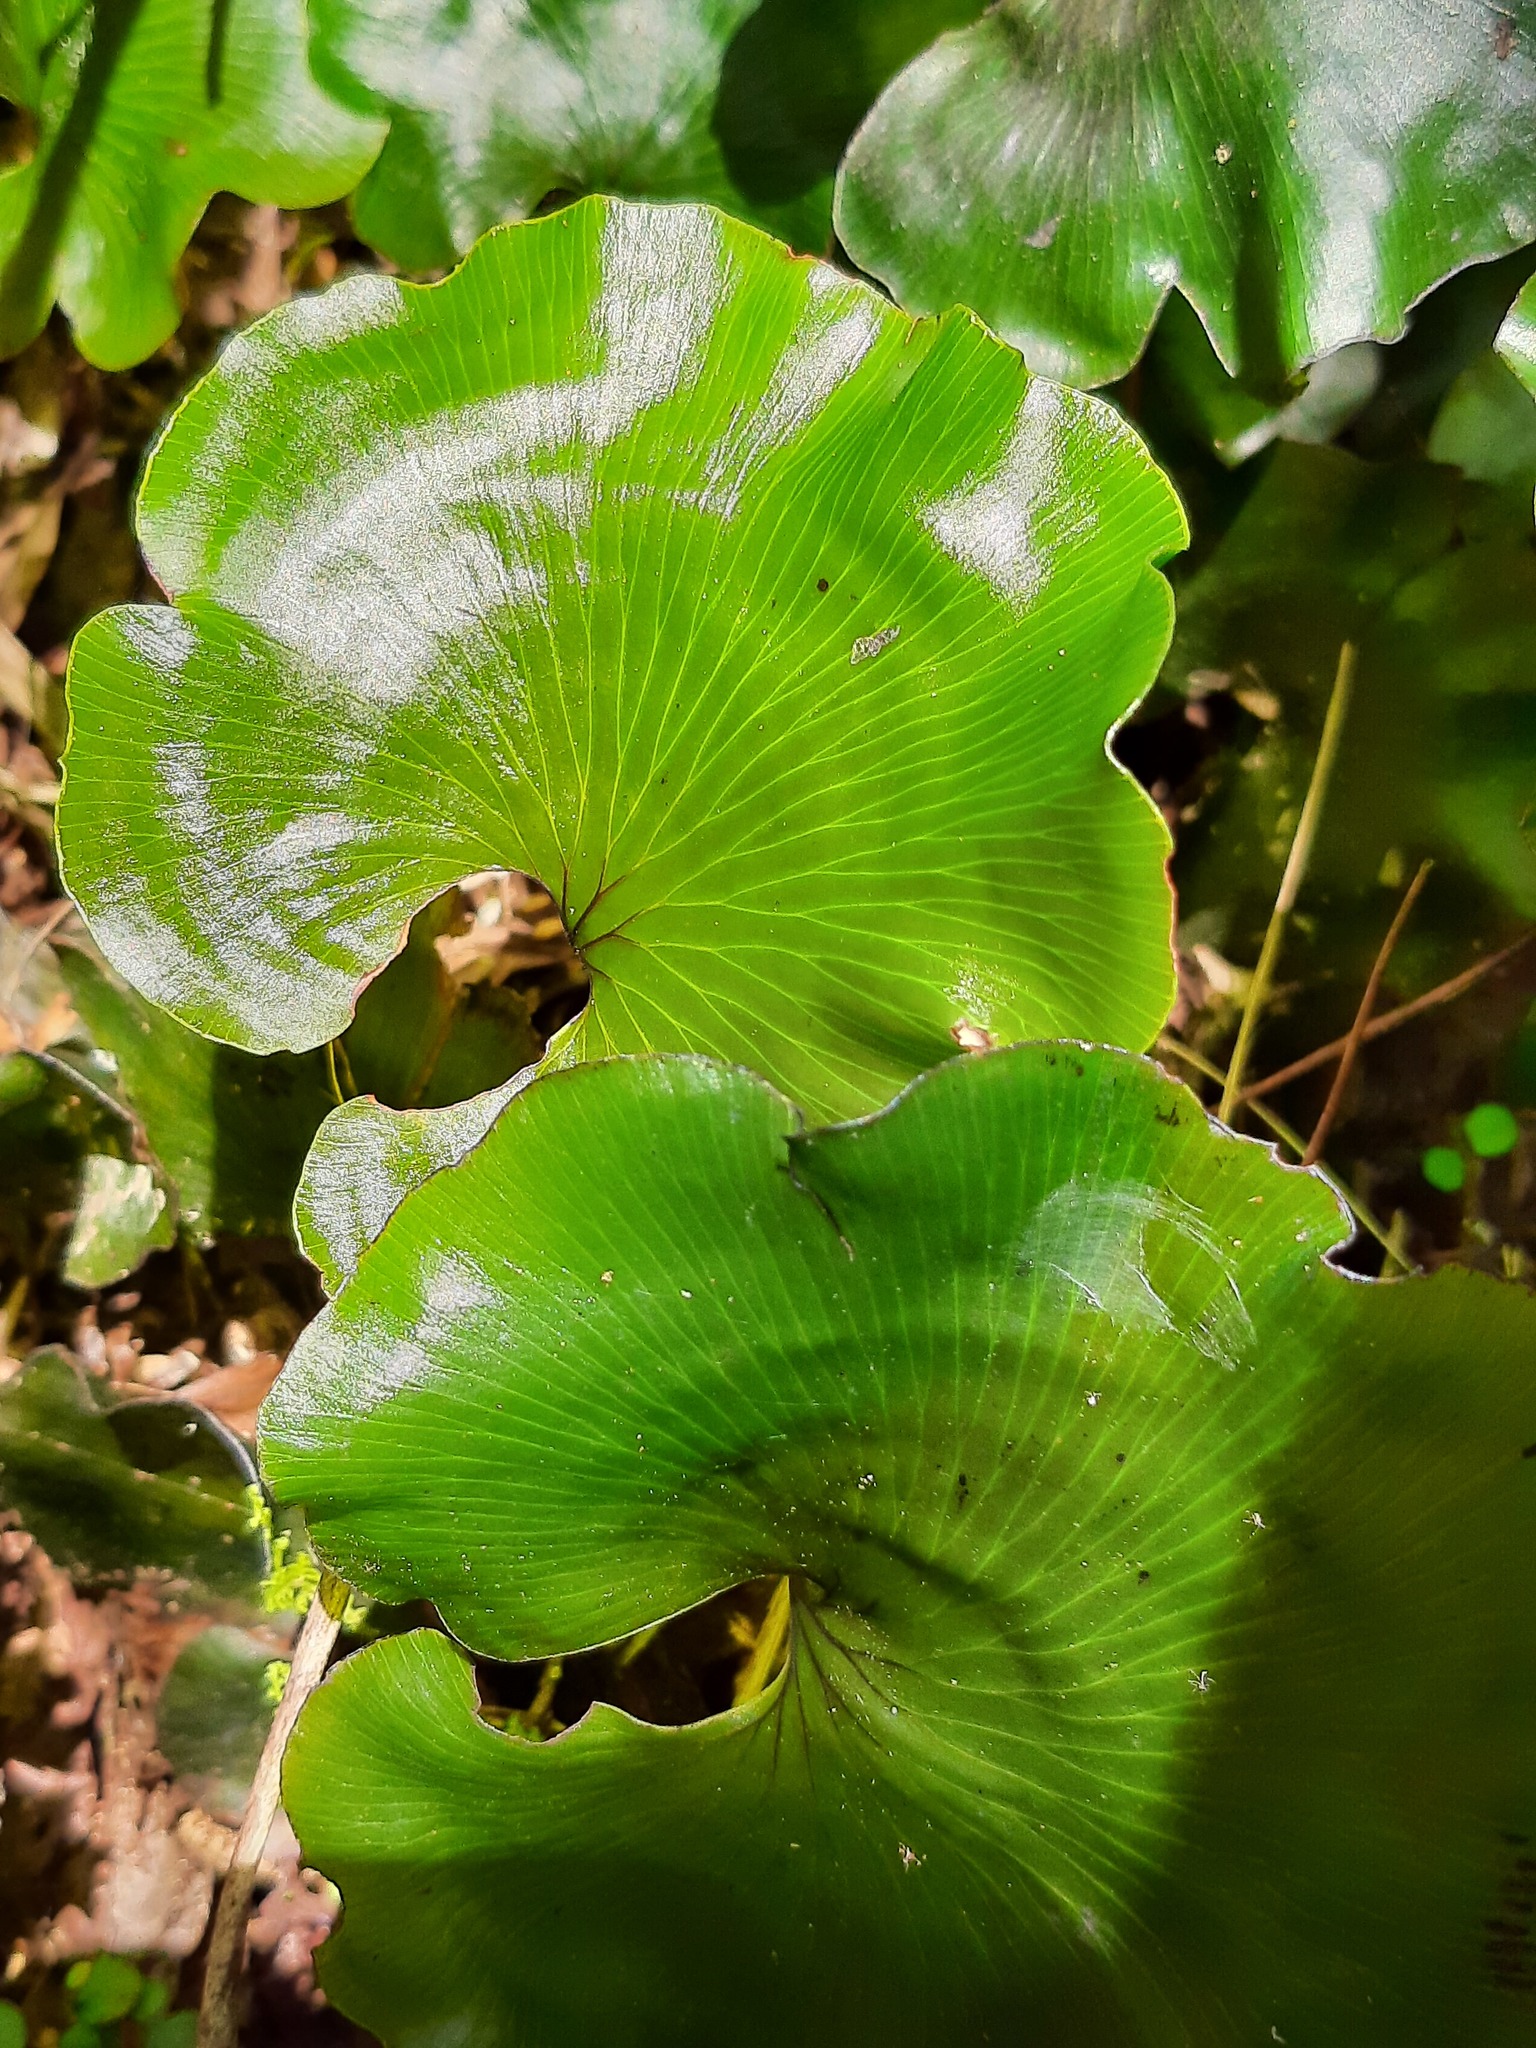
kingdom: Plantae
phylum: Tracheophyta
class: Polypodiopsida
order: Hymenophyllales
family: Hymenophyllaceae
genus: Hymenophyllum
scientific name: Hymenophyllum nephrophyllum
